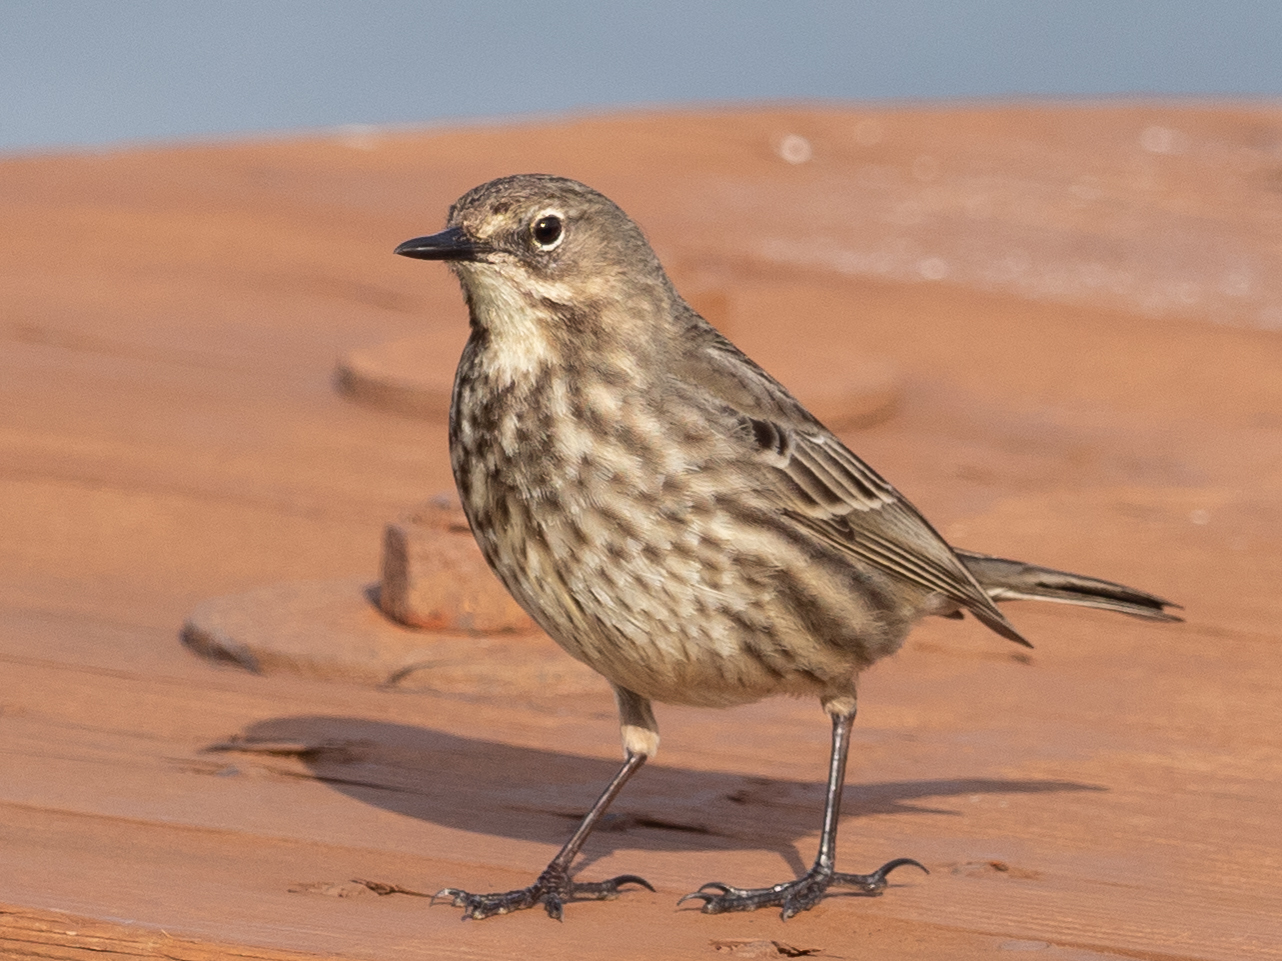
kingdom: Animalia
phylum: Chordata
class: Aves
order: Passeriformes
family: Motacillidae
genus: Anthus
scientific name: Anthus petrosus
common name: Eurasian rock pipit
